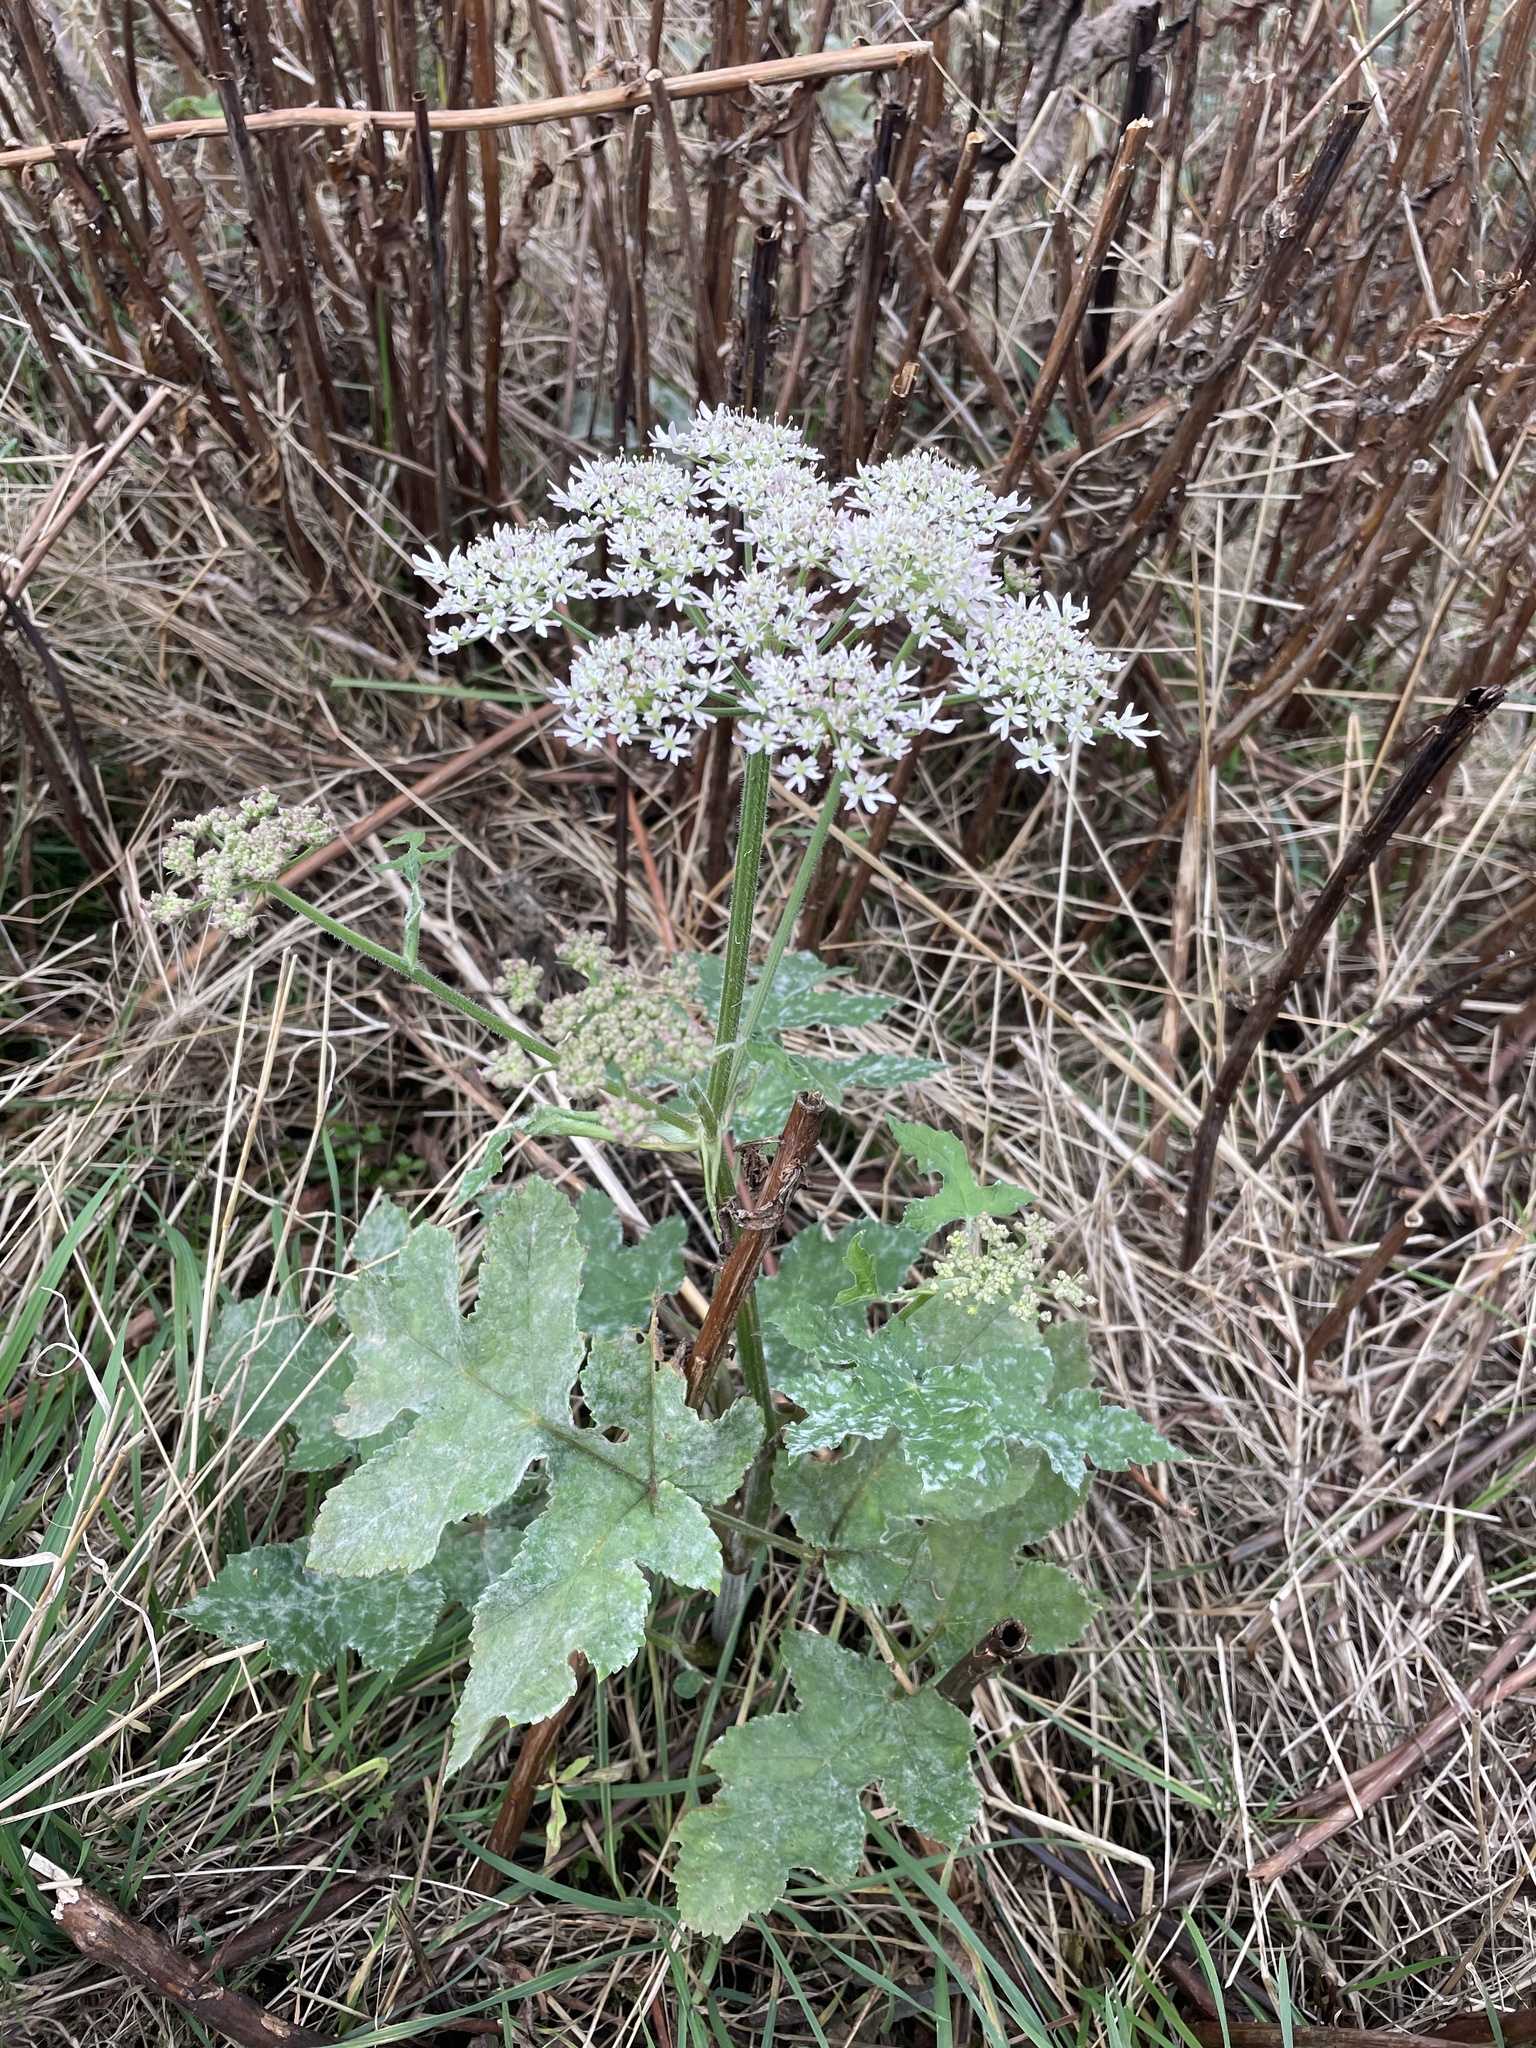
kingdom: Plantae
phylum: Tracheophyta
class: Magnoliopsida
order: Apiales
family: Apiaceae
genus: Heracleum
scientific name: Heracleum sphondylium
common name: Hogweed
